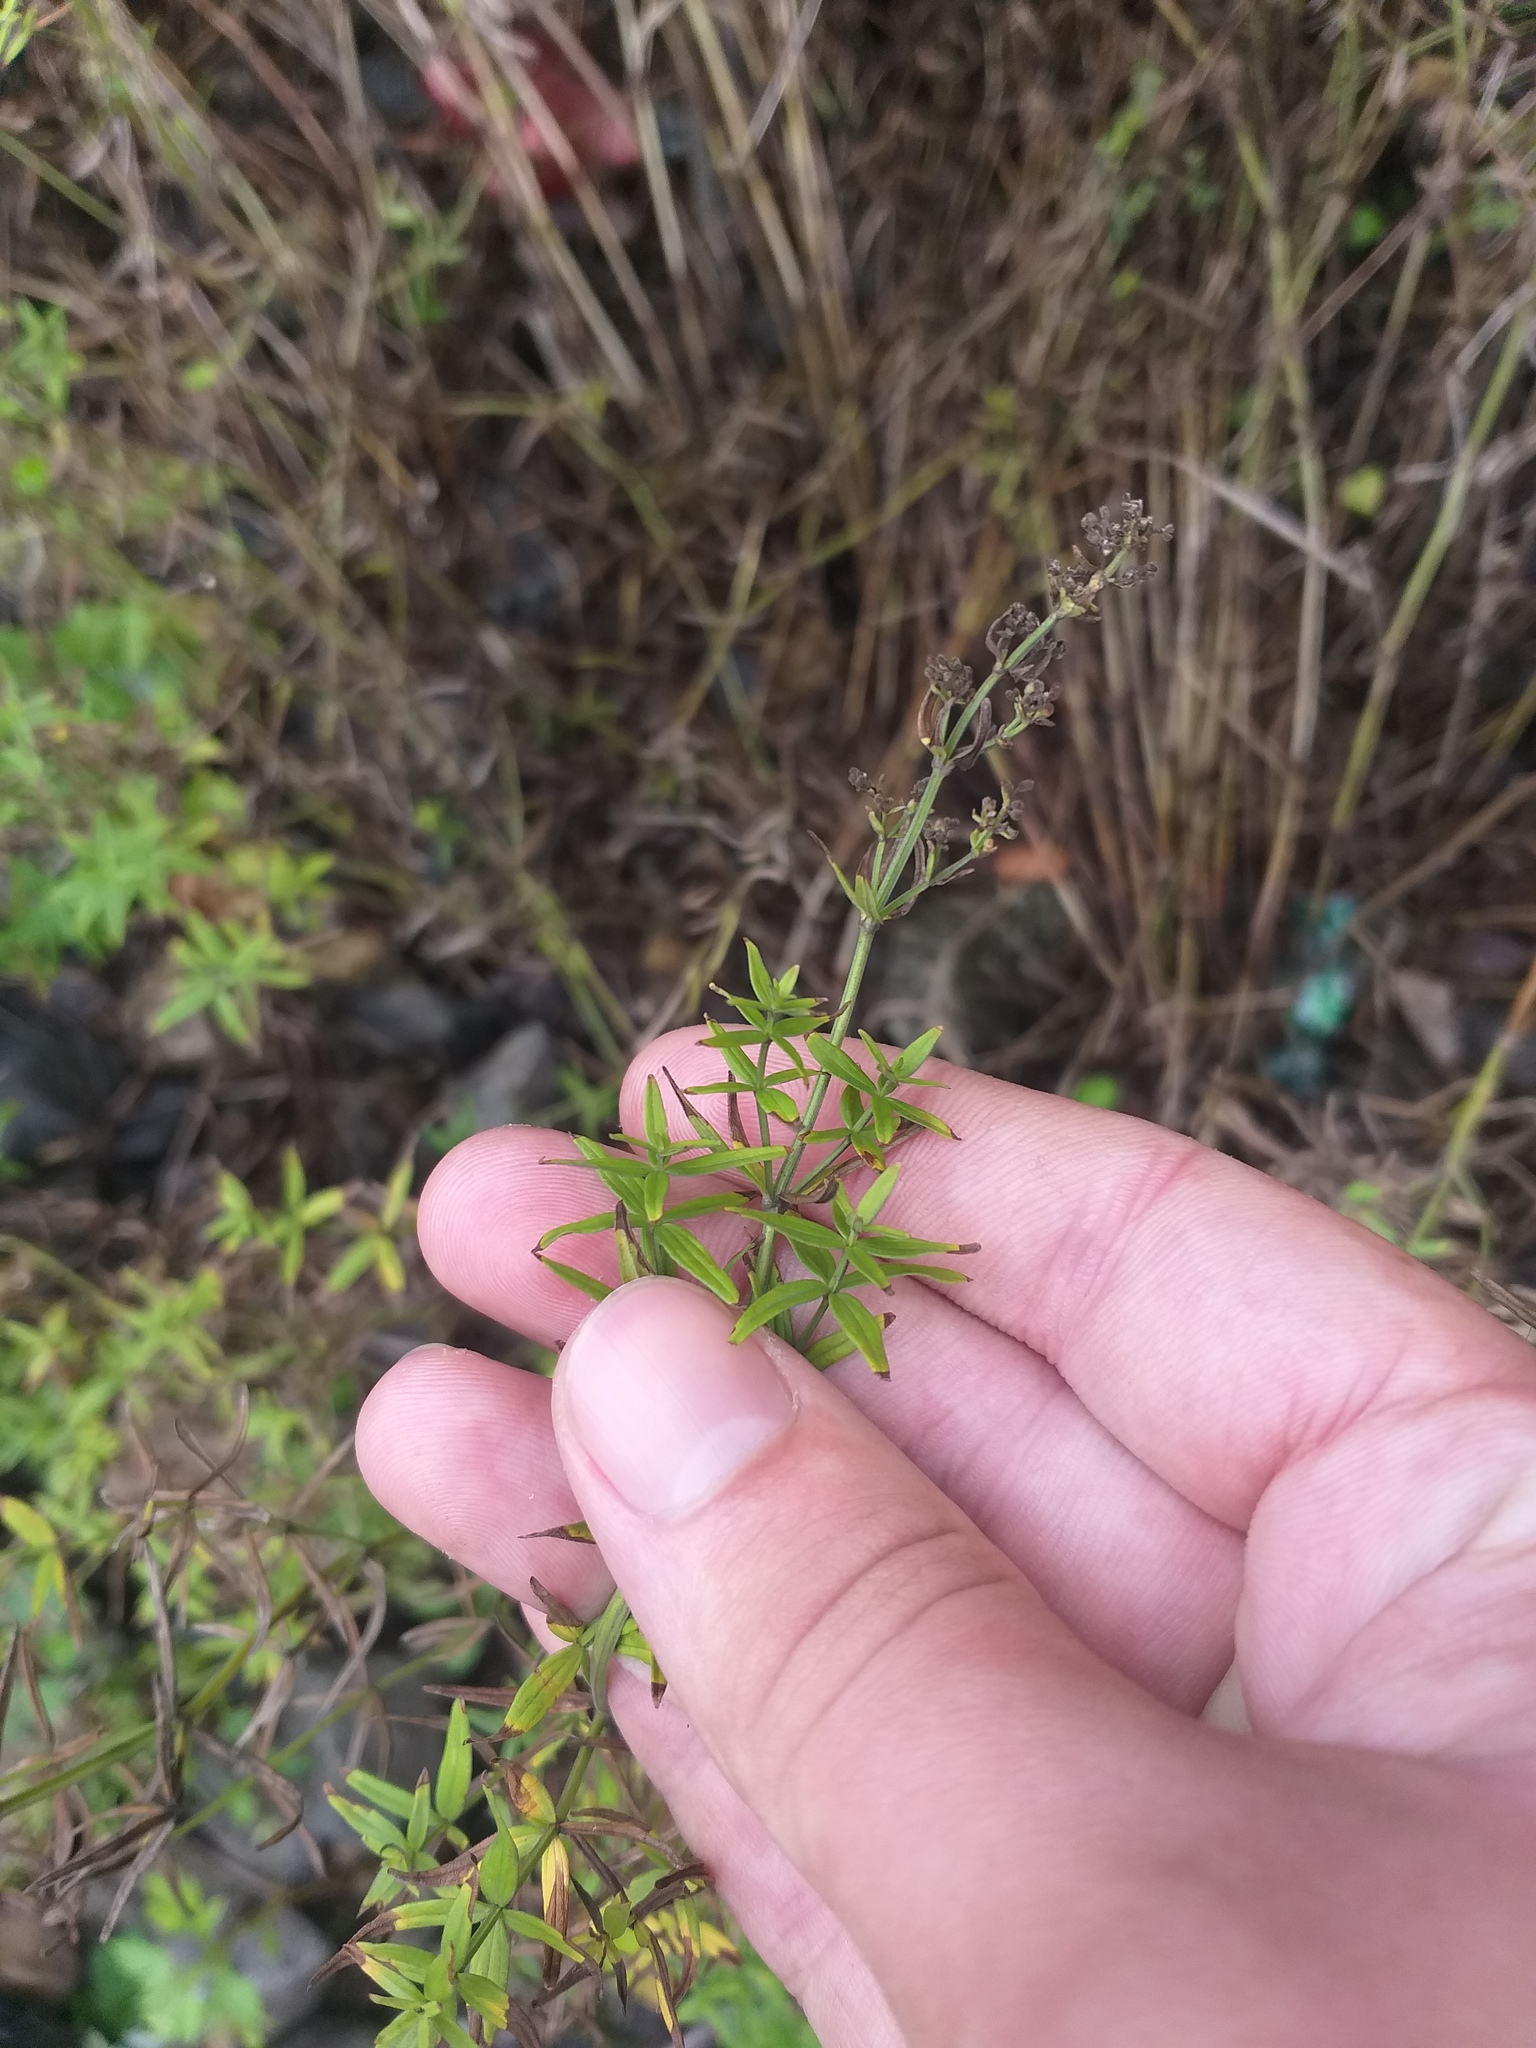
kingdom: Plantae
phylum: Tracheophyta
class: Magnoliopsida
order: Gentianales
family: Rubiaceae
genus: Galium
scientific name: Galium boreale
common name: Northern bedstraw
